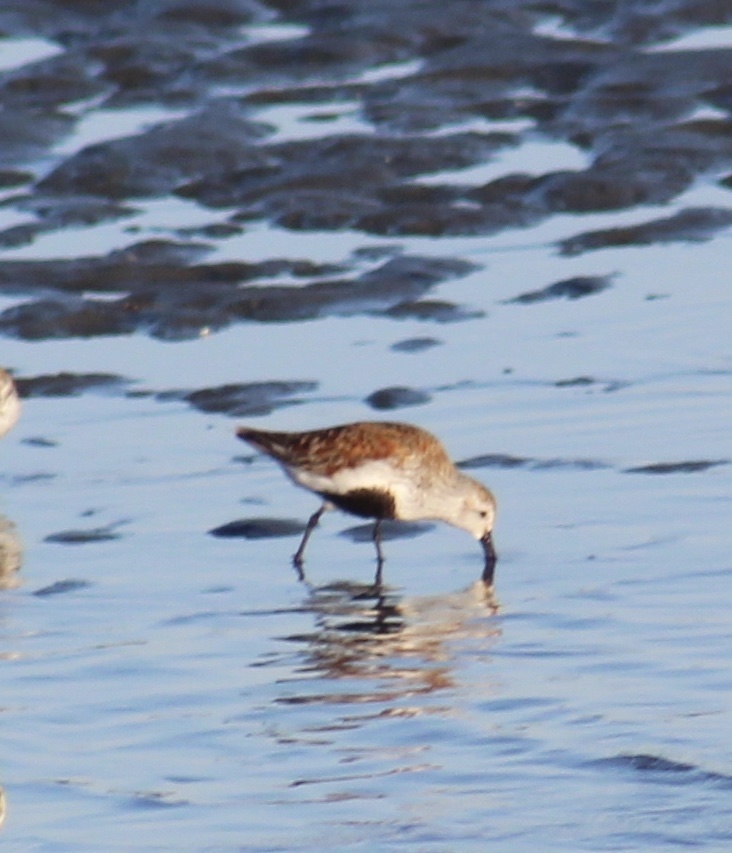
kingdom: Animalia
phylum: Chordata
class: Aves
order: Charadriiformes
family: Scolopacidae
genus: Calidris
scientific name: Calidris alpina
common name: Dunlin
